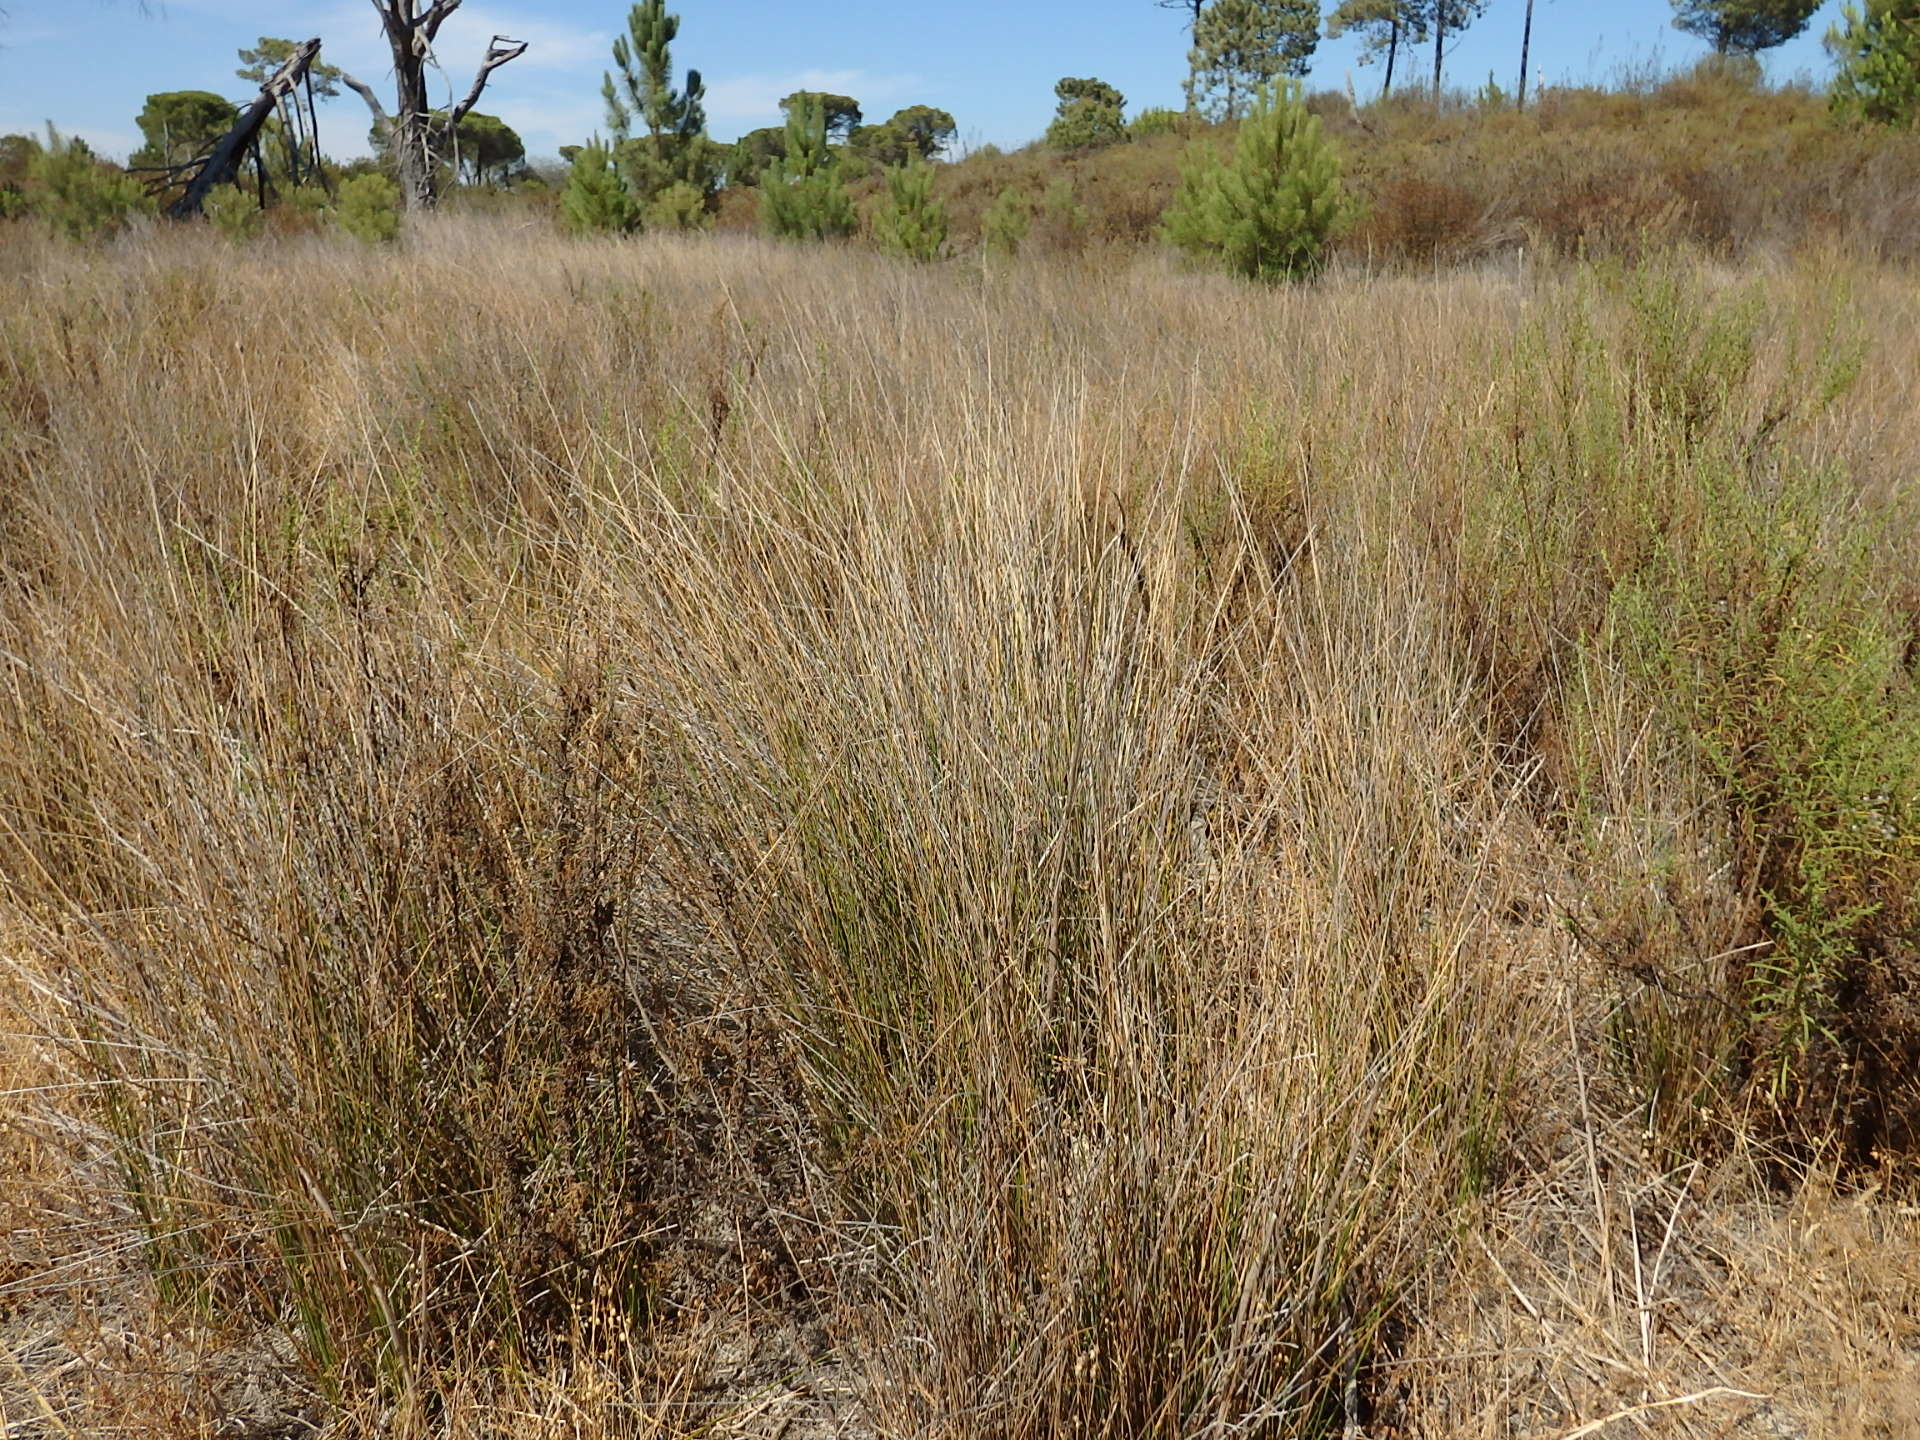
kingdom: Plantae
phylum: Tracheophyta
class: Liliopsida
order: Poales
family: Cyperaceae
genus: Scirpoides
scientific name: Scirpoides holoschoenus
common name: Round-headed club-rush
